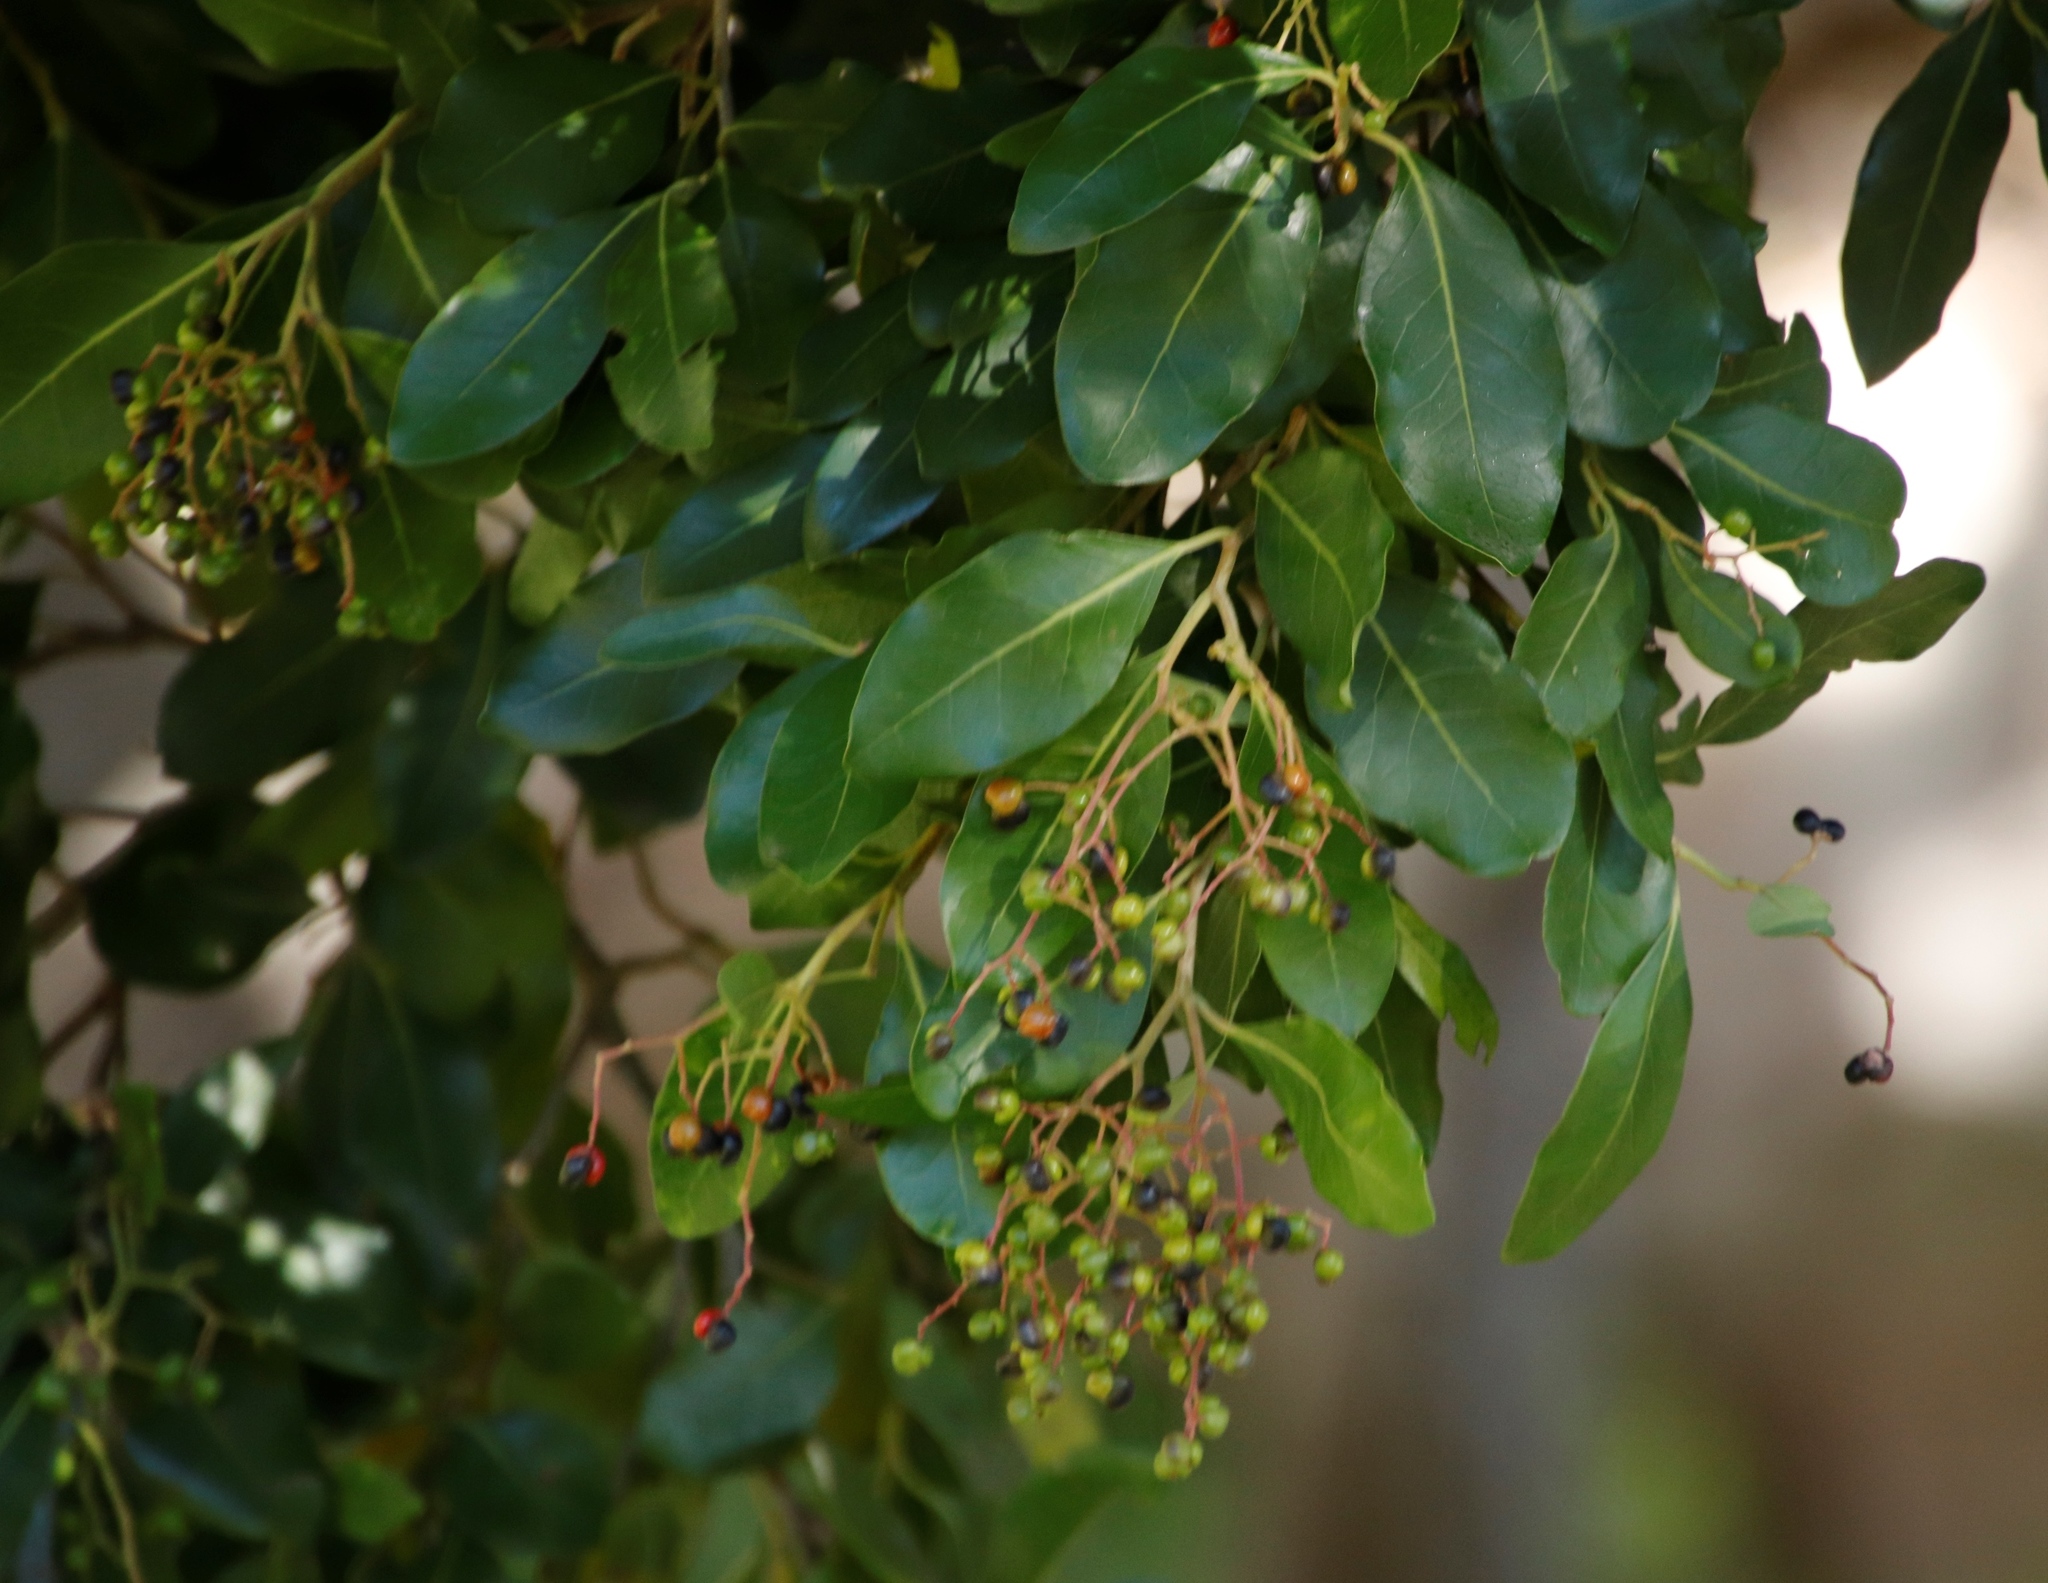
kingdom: Plantae
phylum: Tracheophyta
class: Magnoliopsida
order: Metteniusales
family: Metteniusaceae
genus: Apodytes
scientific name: Apodytes dimidiata
